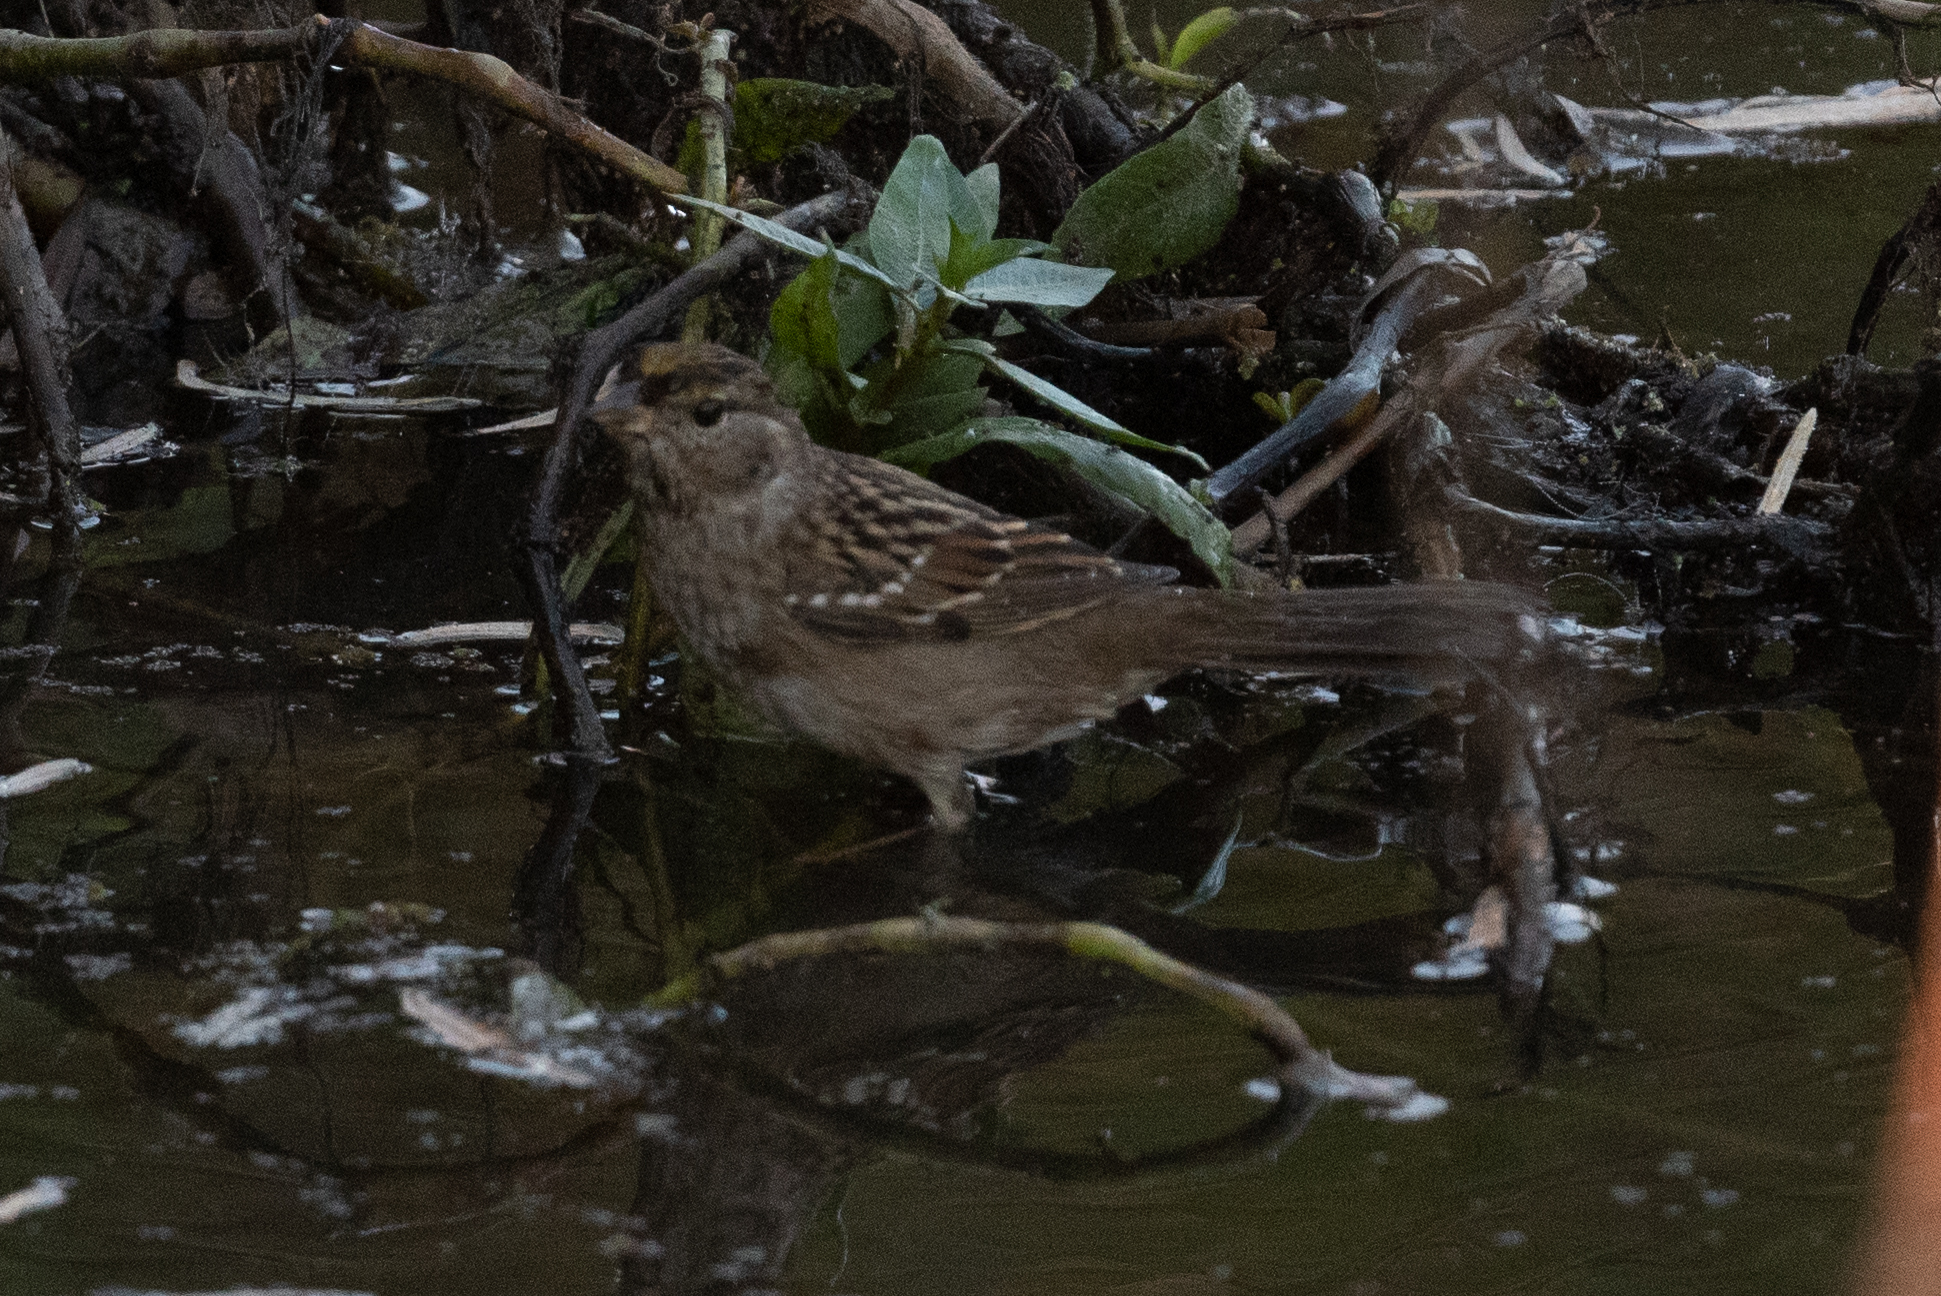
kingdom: Animalia
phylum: Chordata
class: Aves
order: Passeriformes
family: Passerellidae
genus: Zonotrichia
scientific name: Zonotrichia atricapilla
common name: Golden-crowned sparrow
